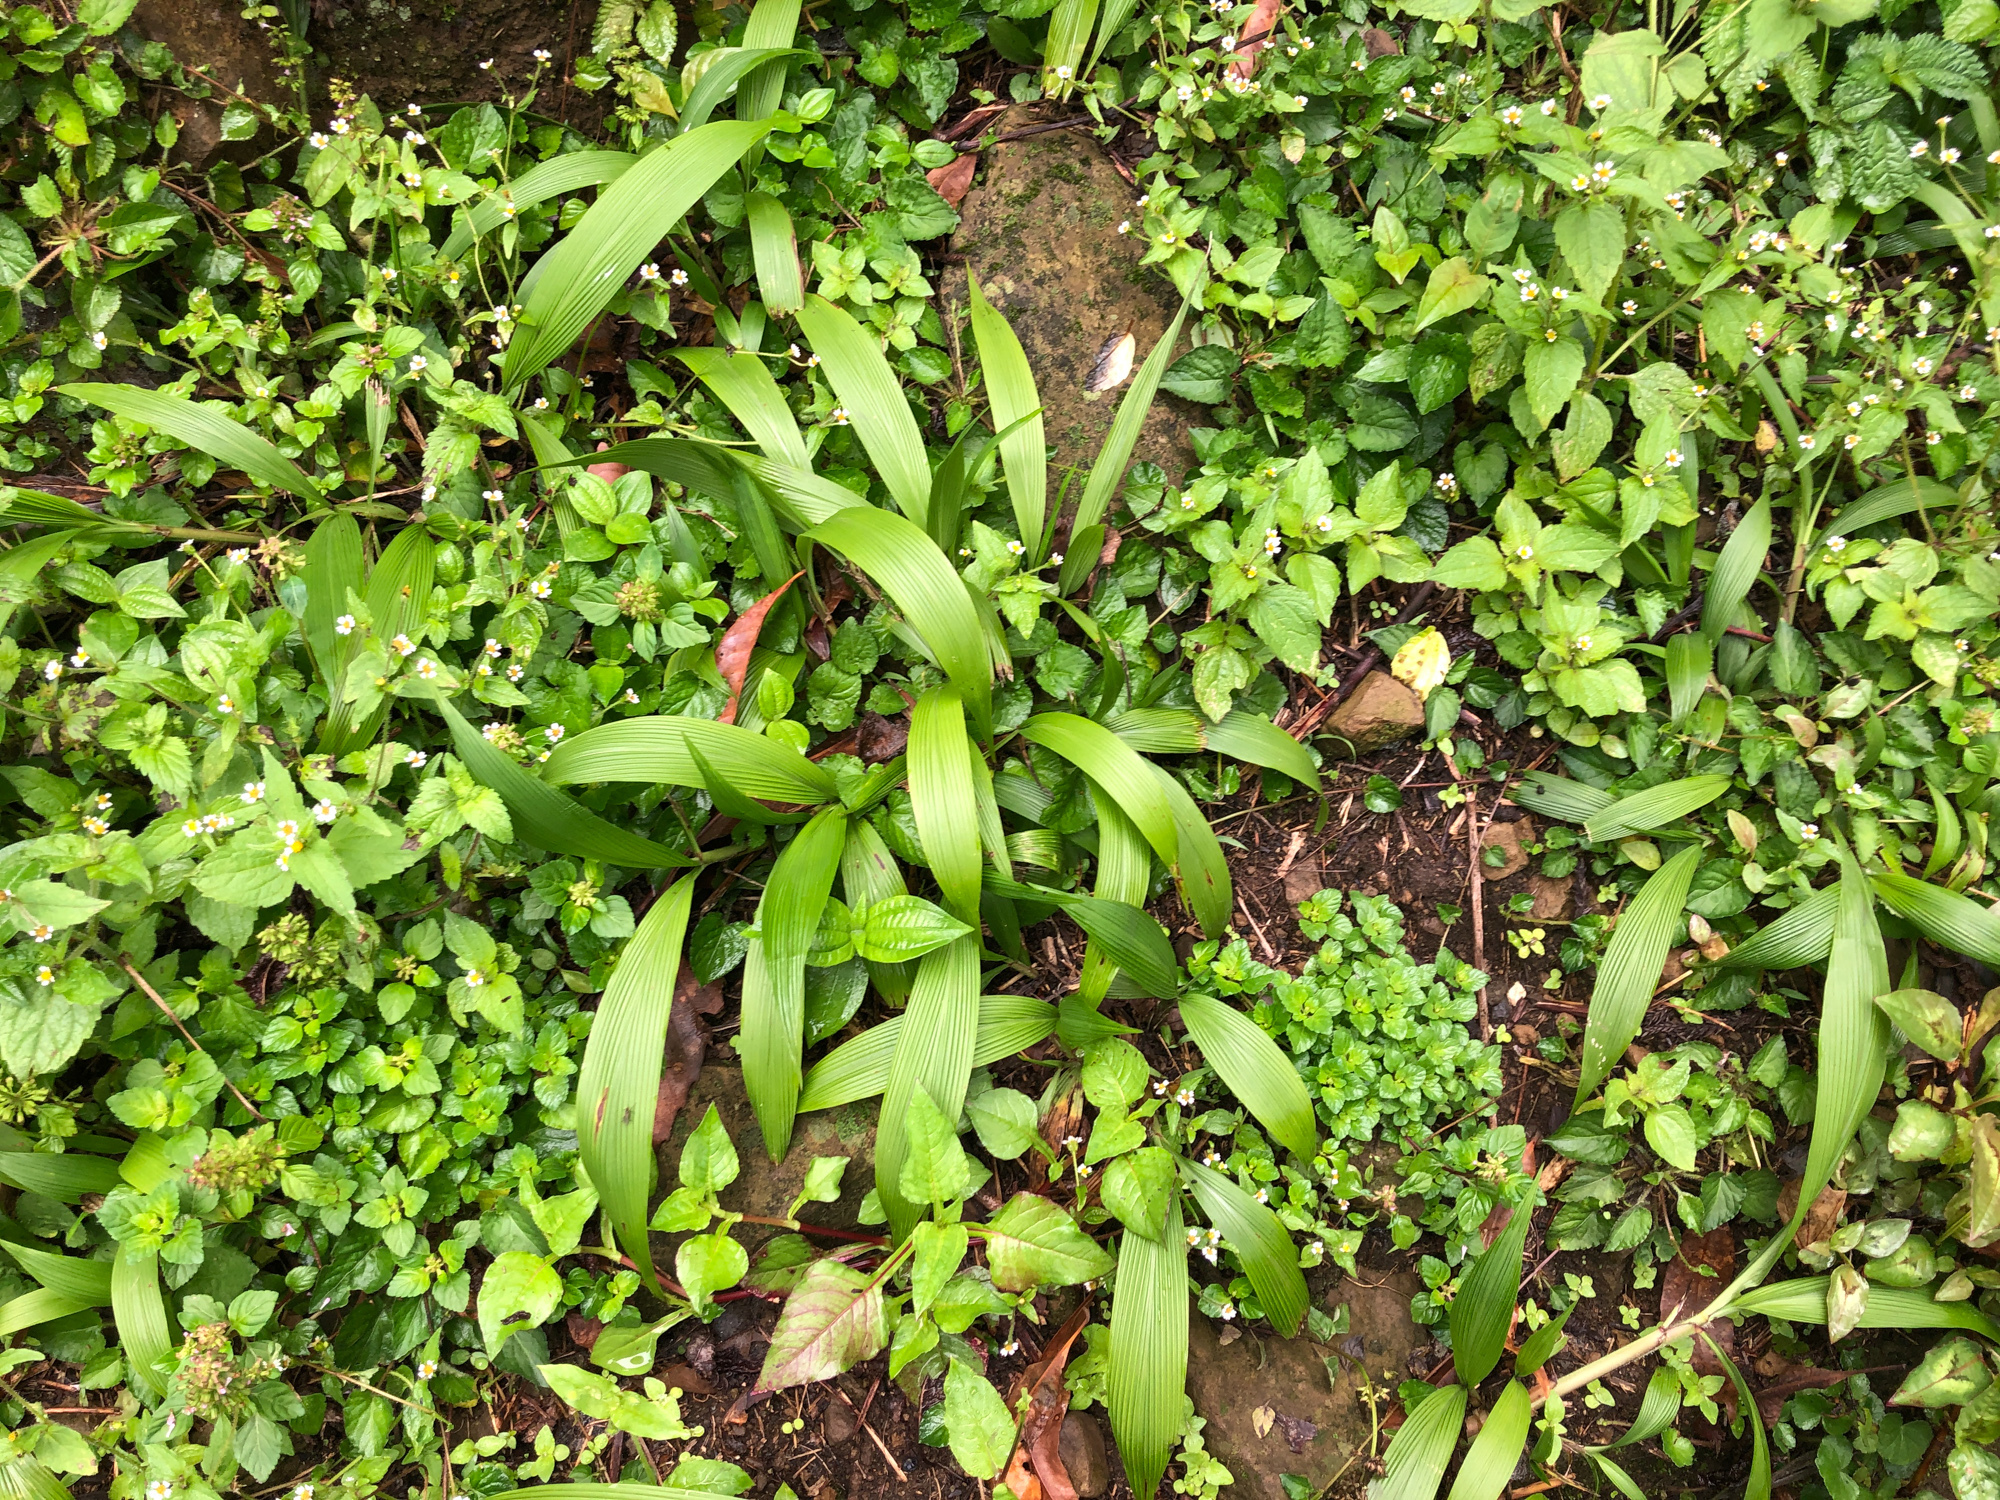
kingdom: Plantae
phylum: Tracheophyta
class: Liliopsida
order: Poales
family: Poaceae
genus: Setaria
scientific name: Setaria palmifolia
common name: Broadleaved bristlegrass
